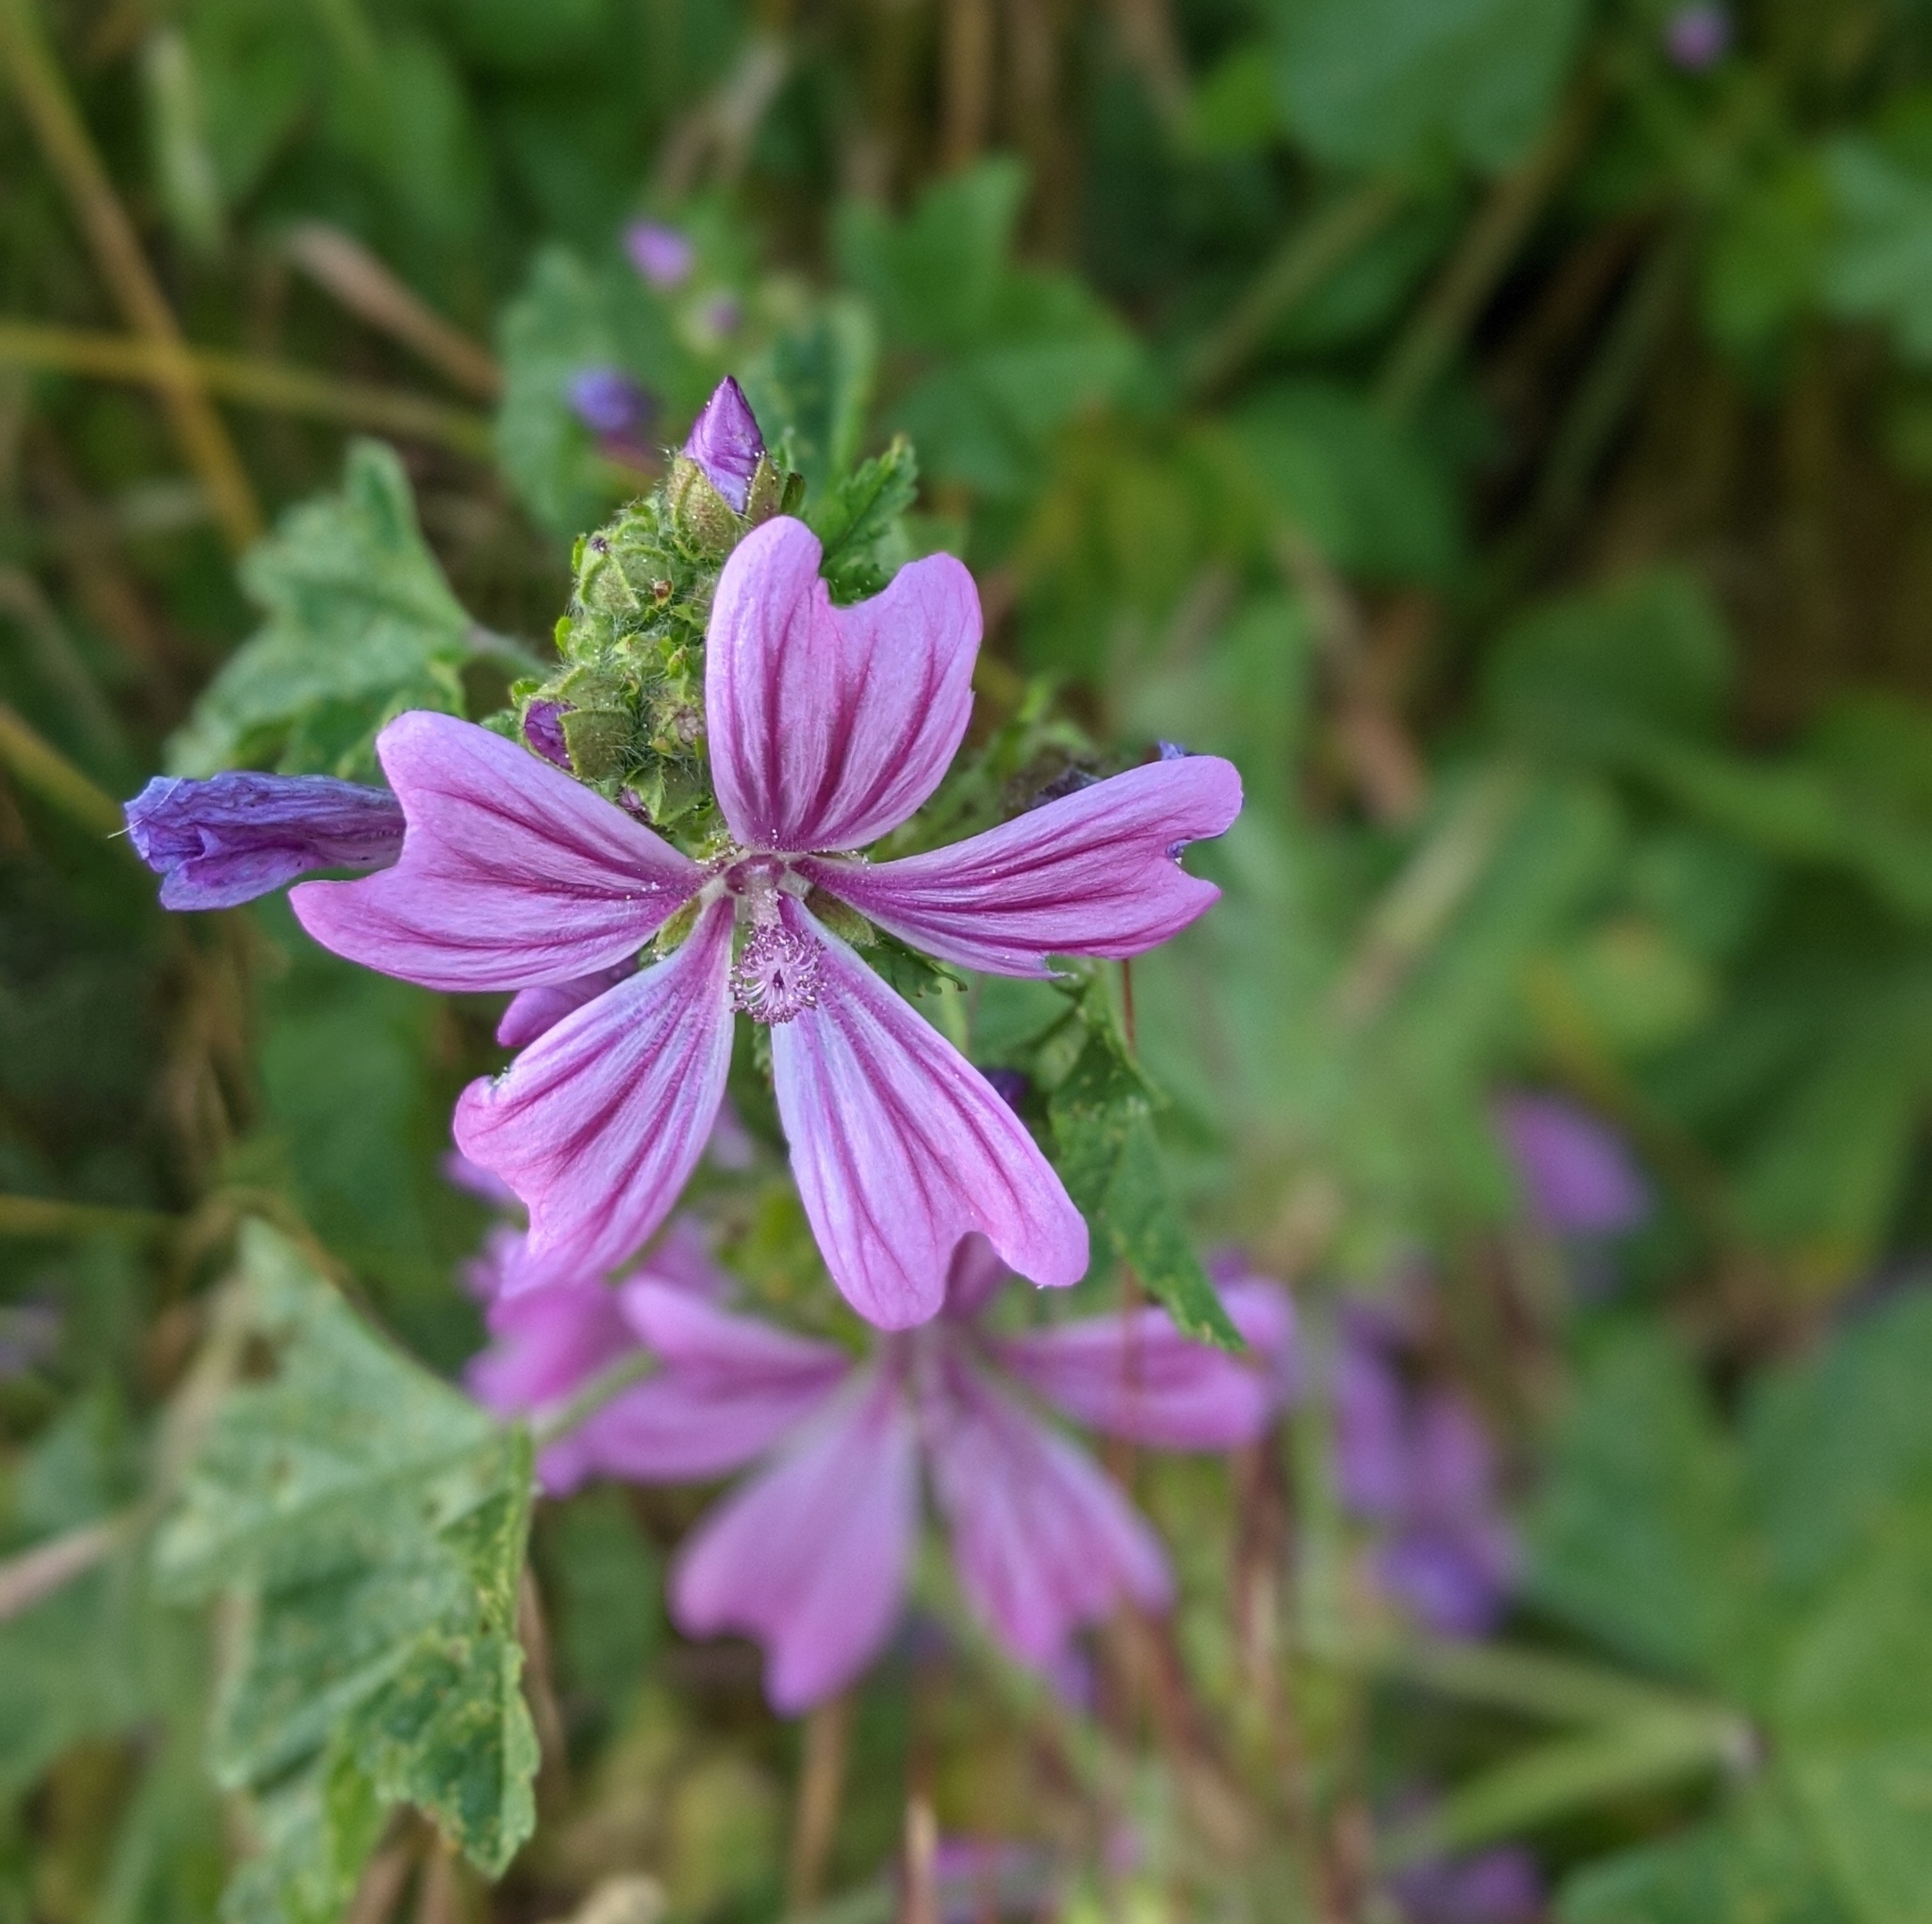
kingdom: Plantae
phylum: Tracheophyta
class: Magnoliopsida
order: Malvales
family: Malvaceae
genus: Malva
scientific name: Malva sylvestris
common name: Common mallow
